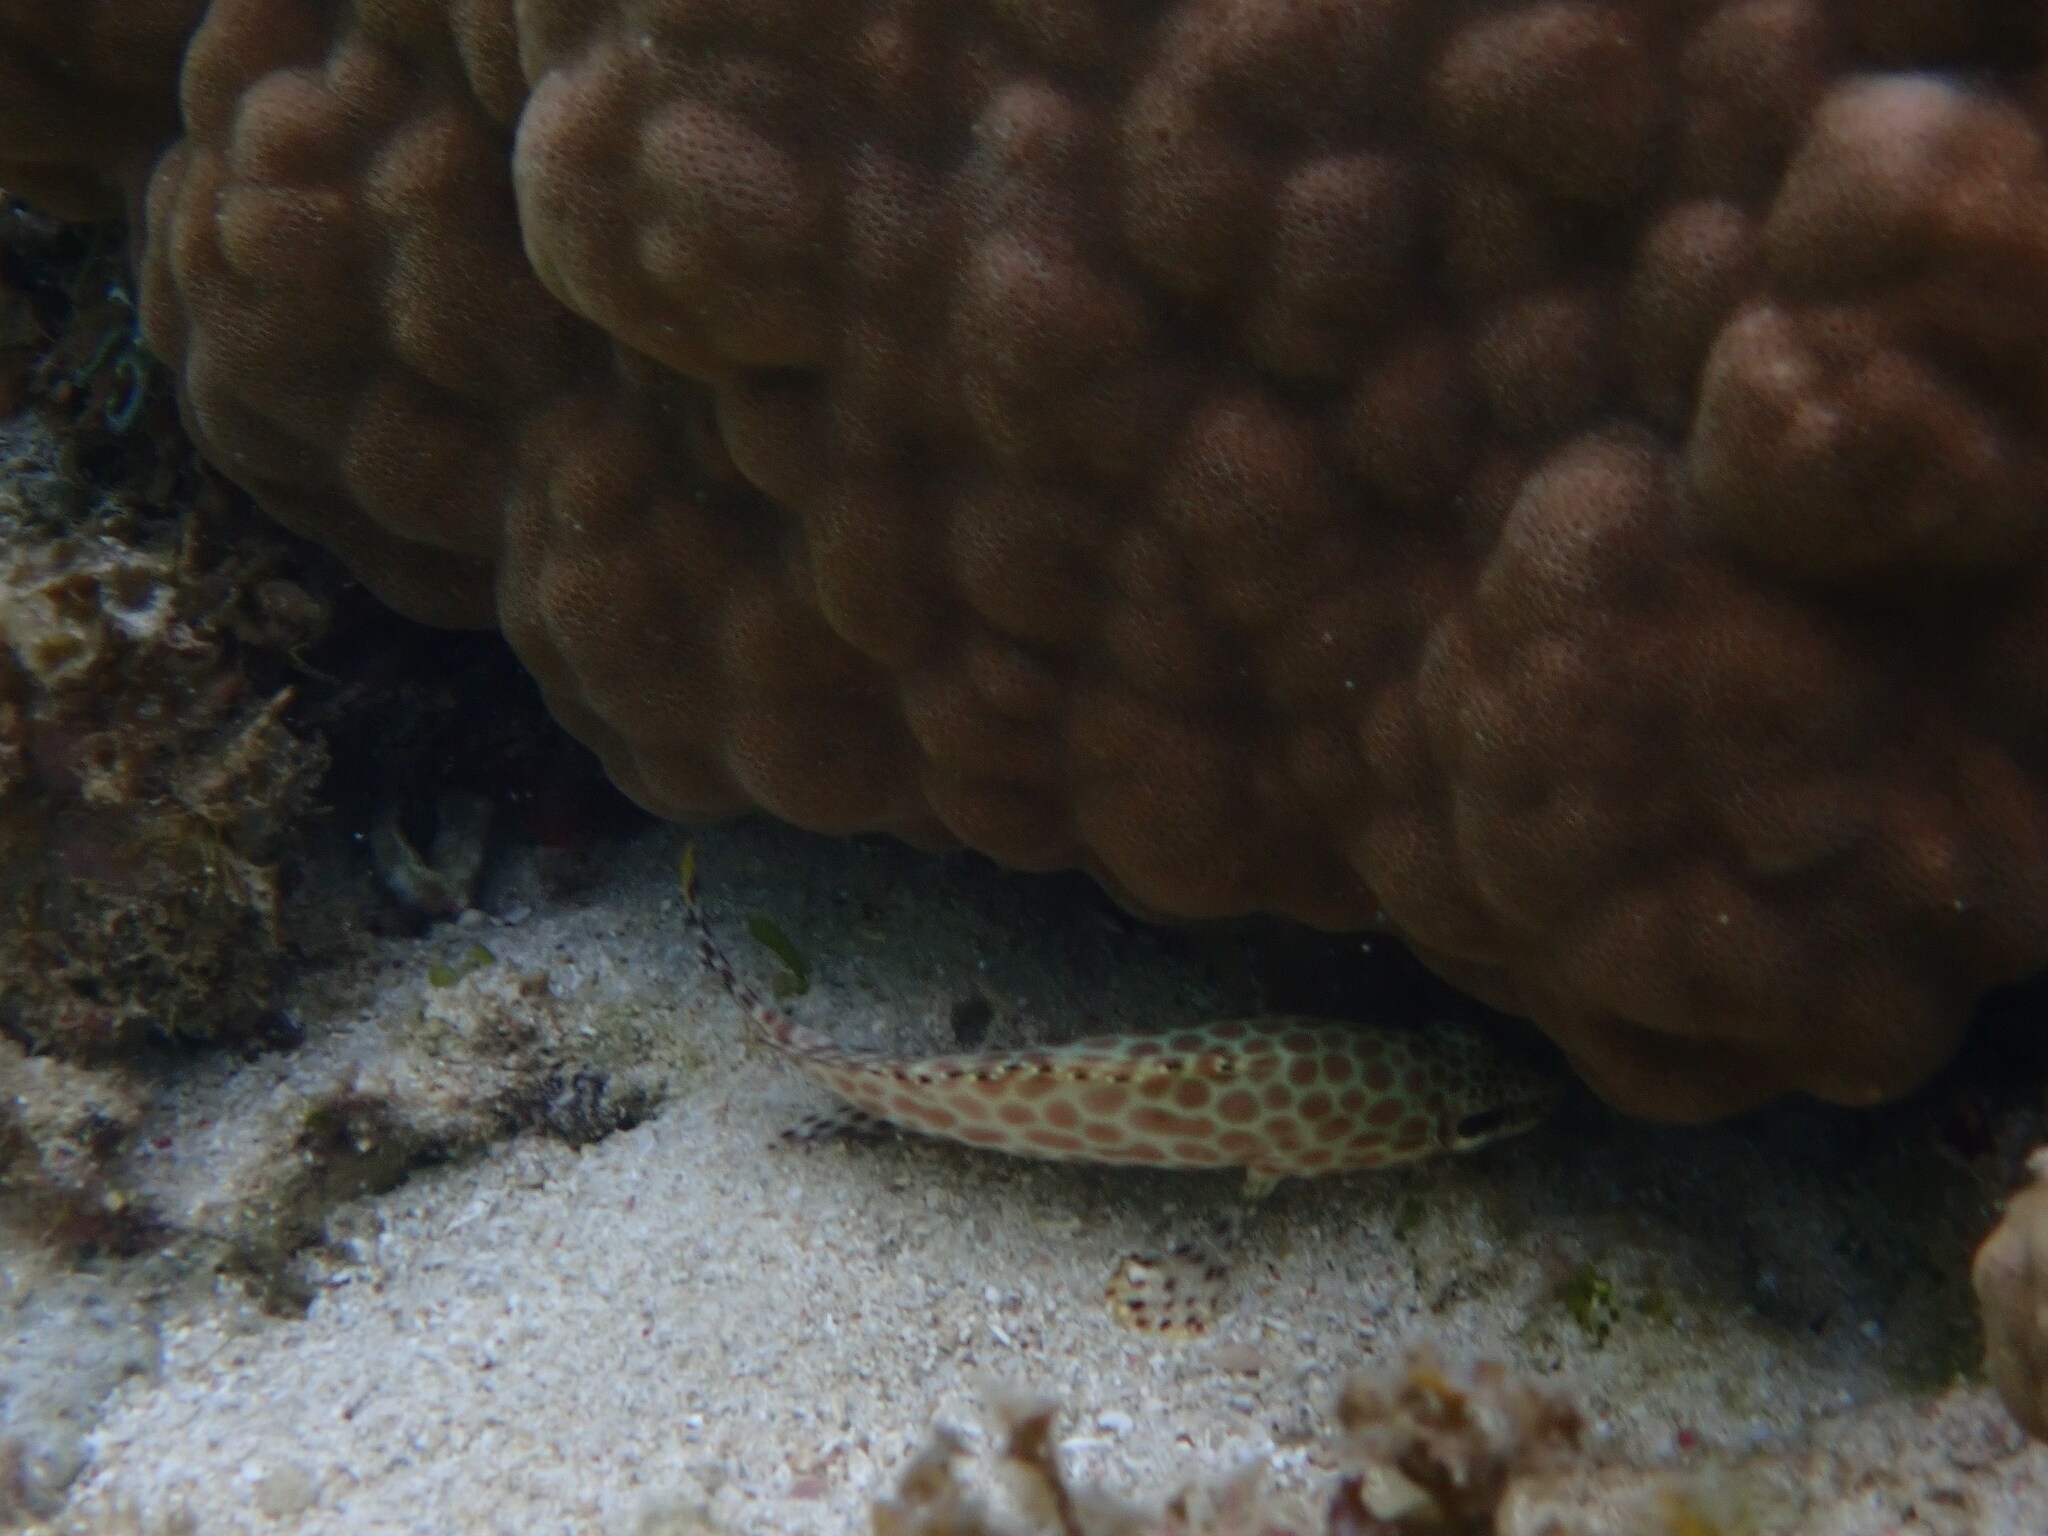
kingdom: Animalia
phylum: Chordata
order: Perciformes
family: Serranidae
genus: Epinephelus
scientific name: Epinephelus merra
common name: Honeycomb grouper
